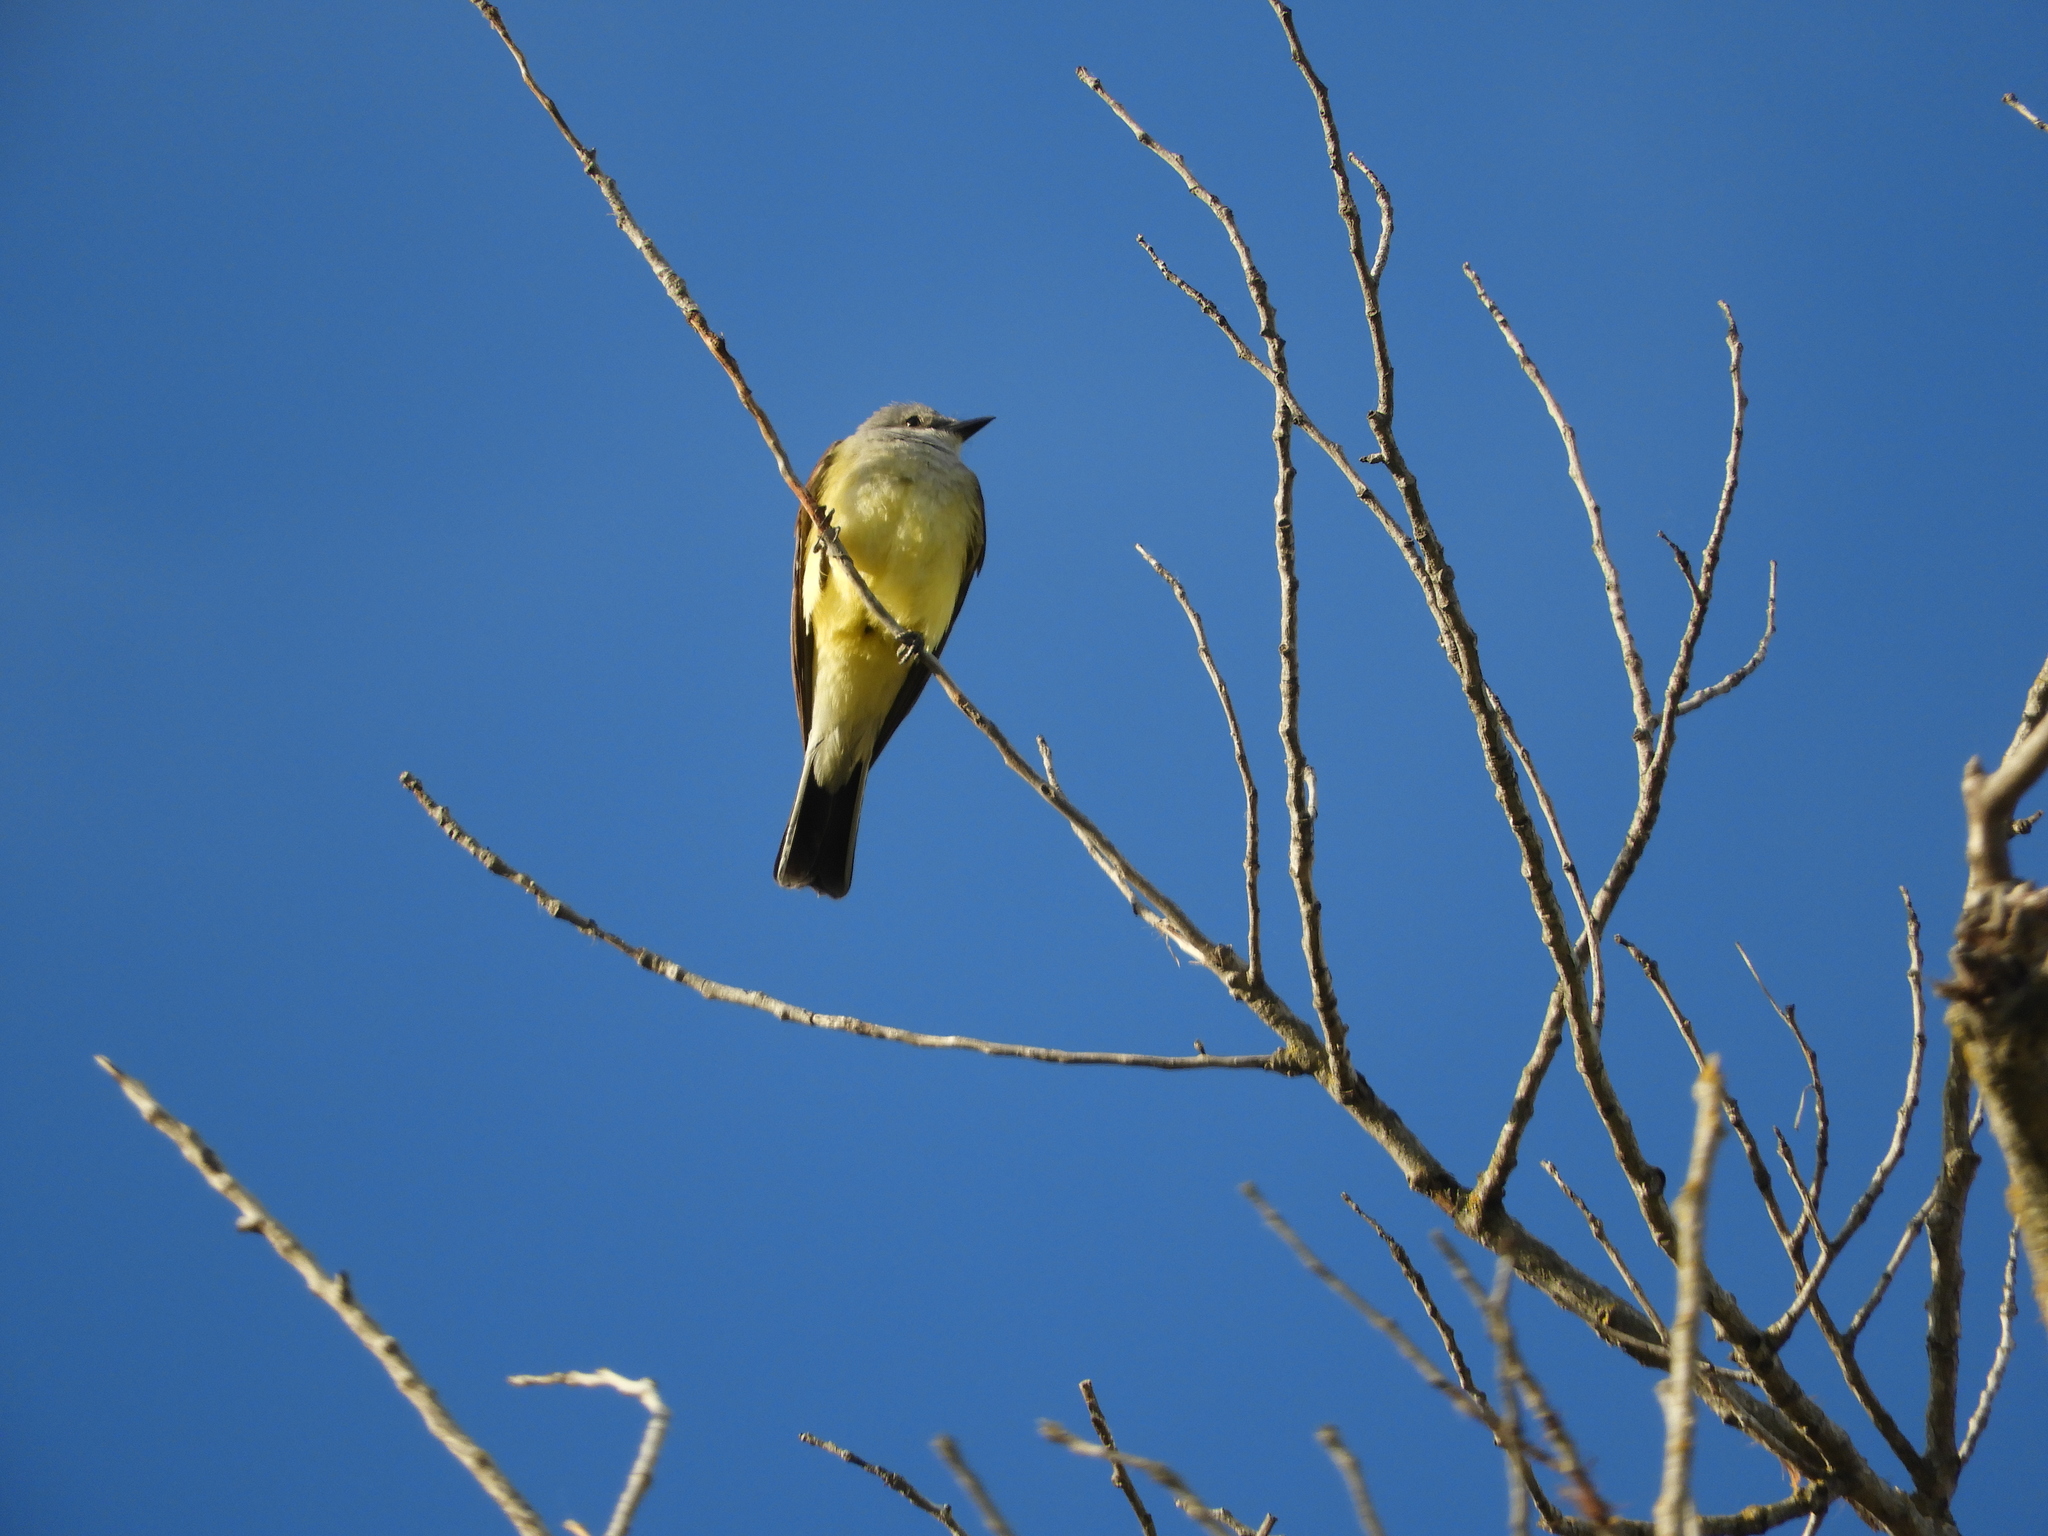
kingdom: Animalia
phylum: Chordata
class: Aves
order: Passeriformes
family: Tyrannidae
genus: Tyrannus
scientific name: Tyrannus verticalis
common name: Western kingbird
